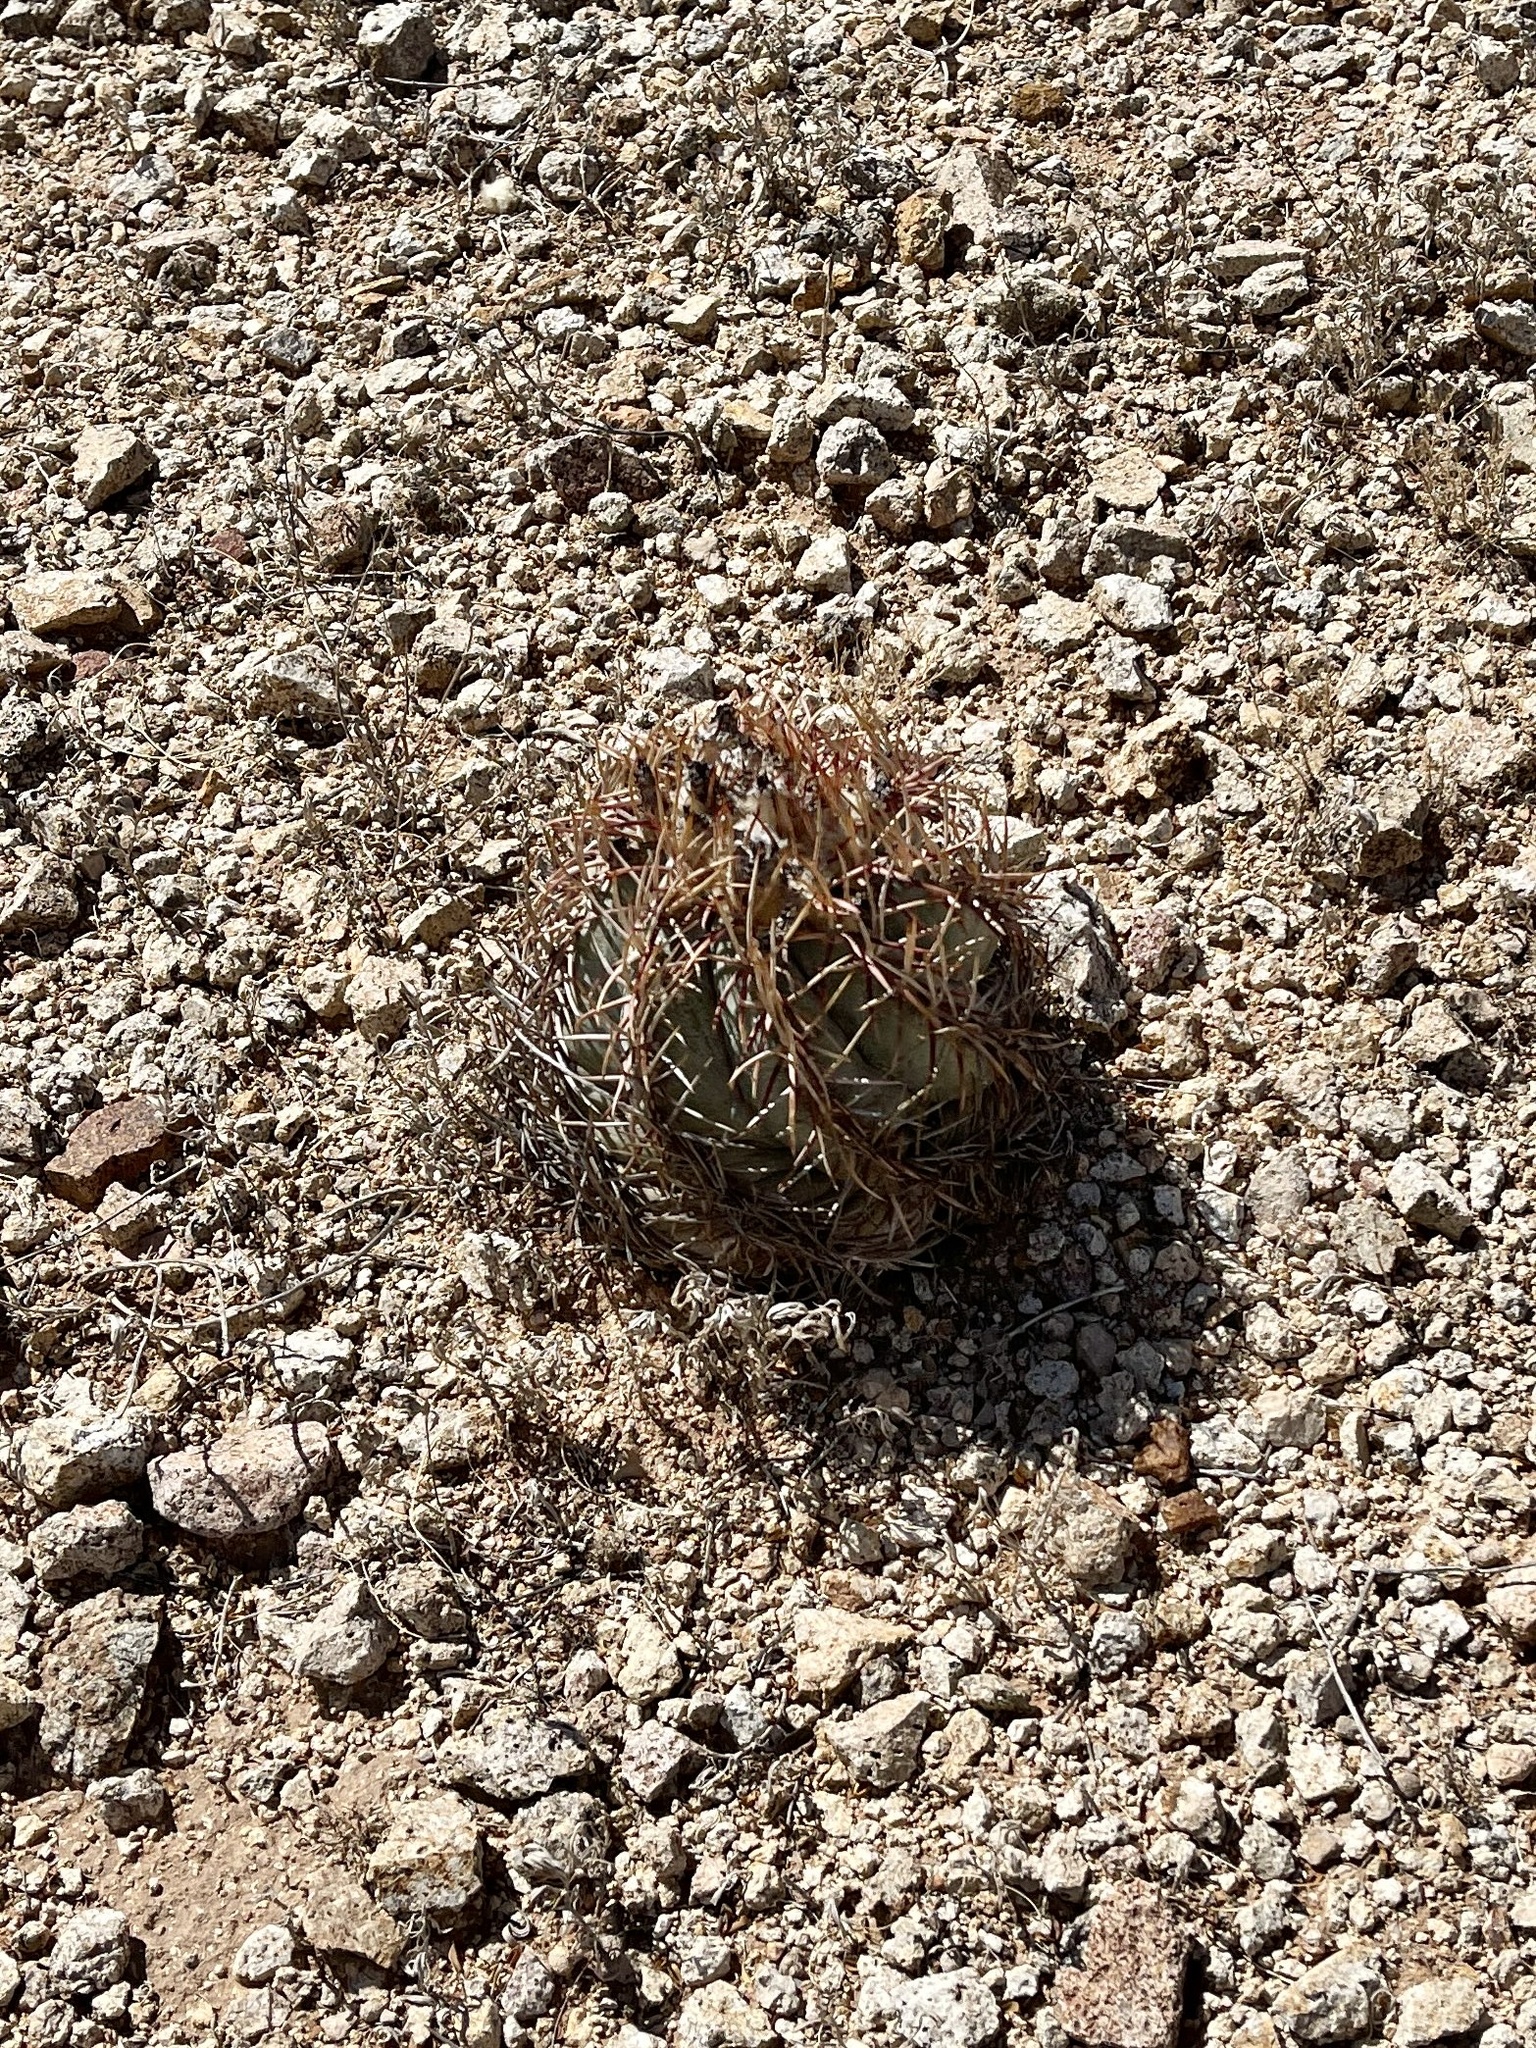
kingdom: Plantae
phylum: Tracheophyta
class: Magnoliopsida
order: Caryophyllales
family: Cactaceae
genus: Echinocactus
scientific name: Echinocactus horizonthalonius
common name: Devilshead
